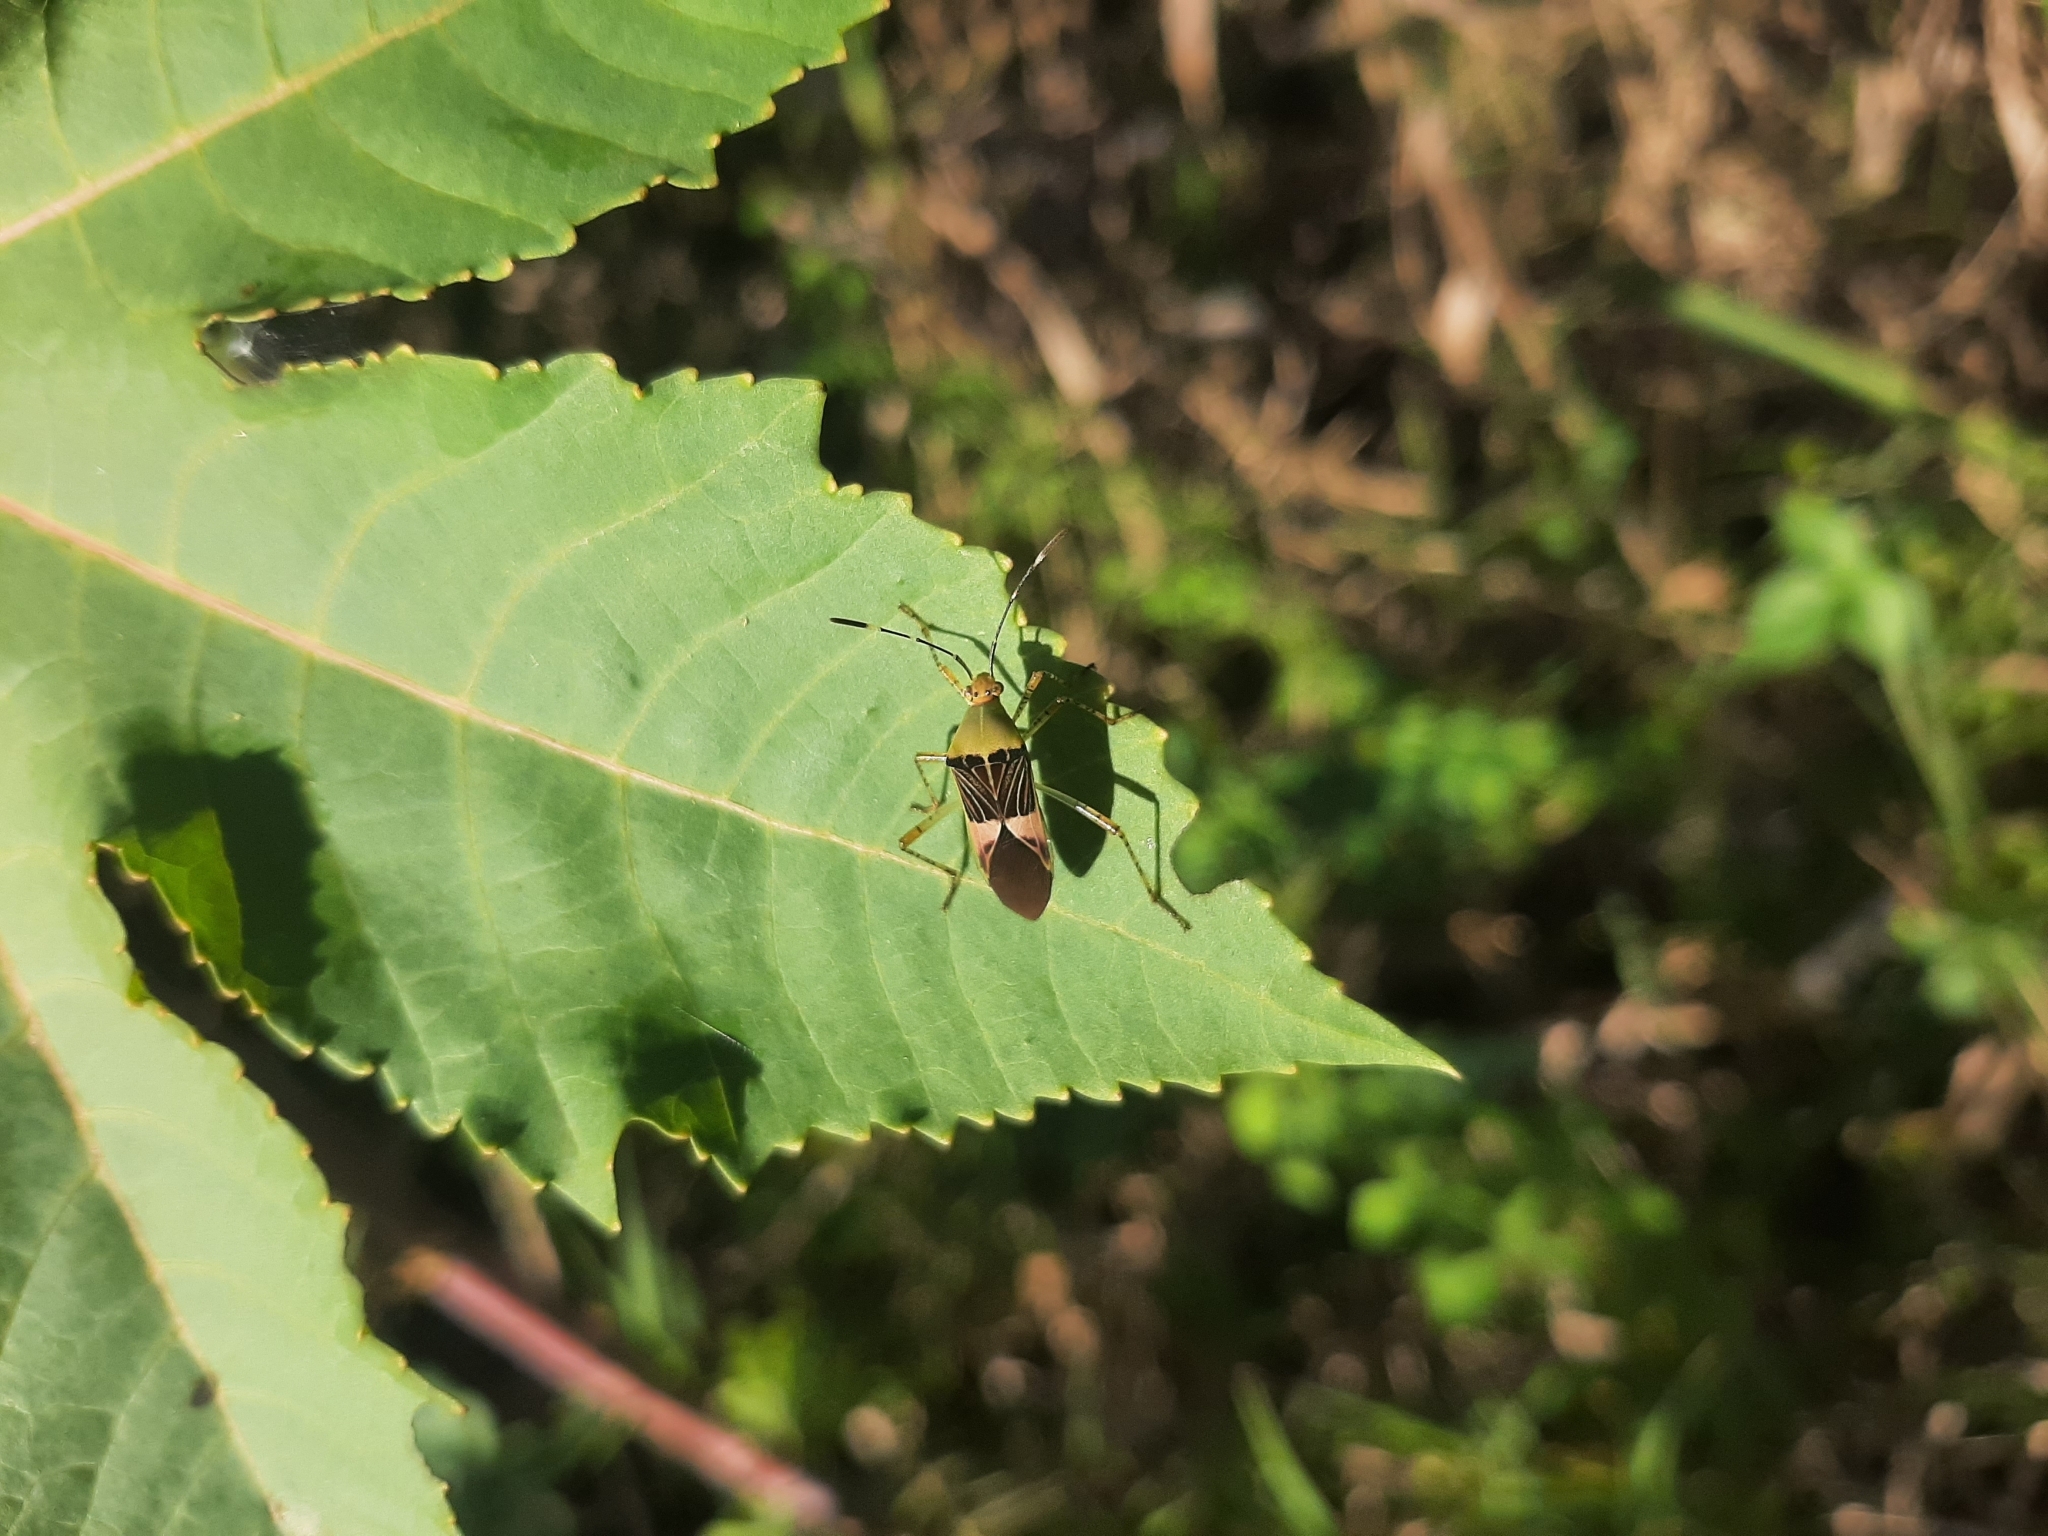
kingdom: Animalia
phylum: Arthropoda
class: Insecta
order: Hemiptera
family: Coreidae
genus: Hypselonotus
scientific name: Hypselonotus fulvus
